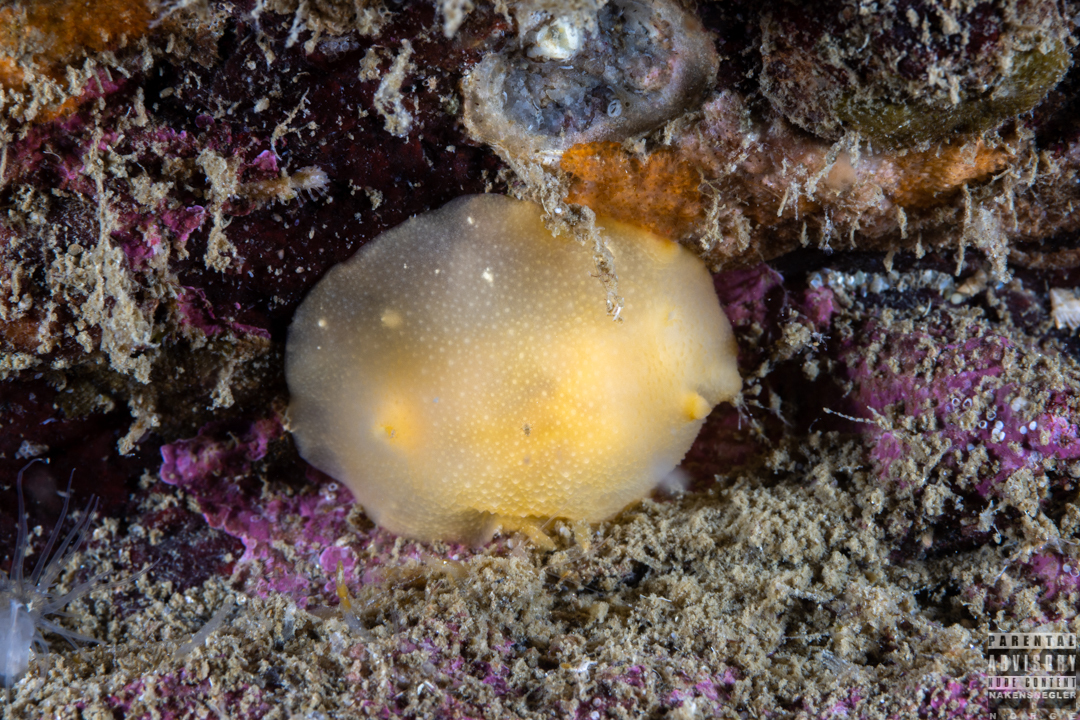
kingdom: Animalia
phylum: Mollusca
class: Gastropoda
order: Nudibranchia
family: Cadlinidae
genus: Cadlina
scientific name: Cadlina laevis
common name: White atlantic cadlina
